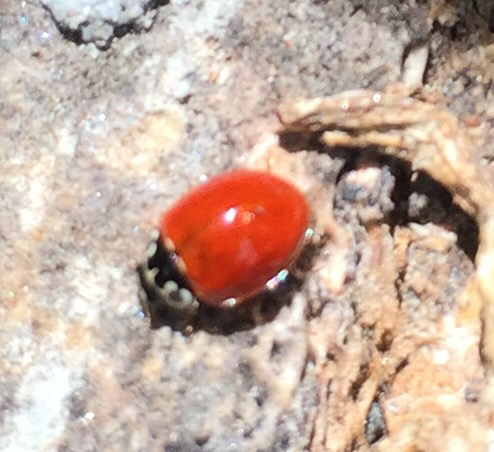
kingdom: Animalia
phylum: Arthropoda
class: Insecta
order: Coleoptera
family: Coccinellidae
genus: Cycloneda
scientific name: Cycloneda polita
